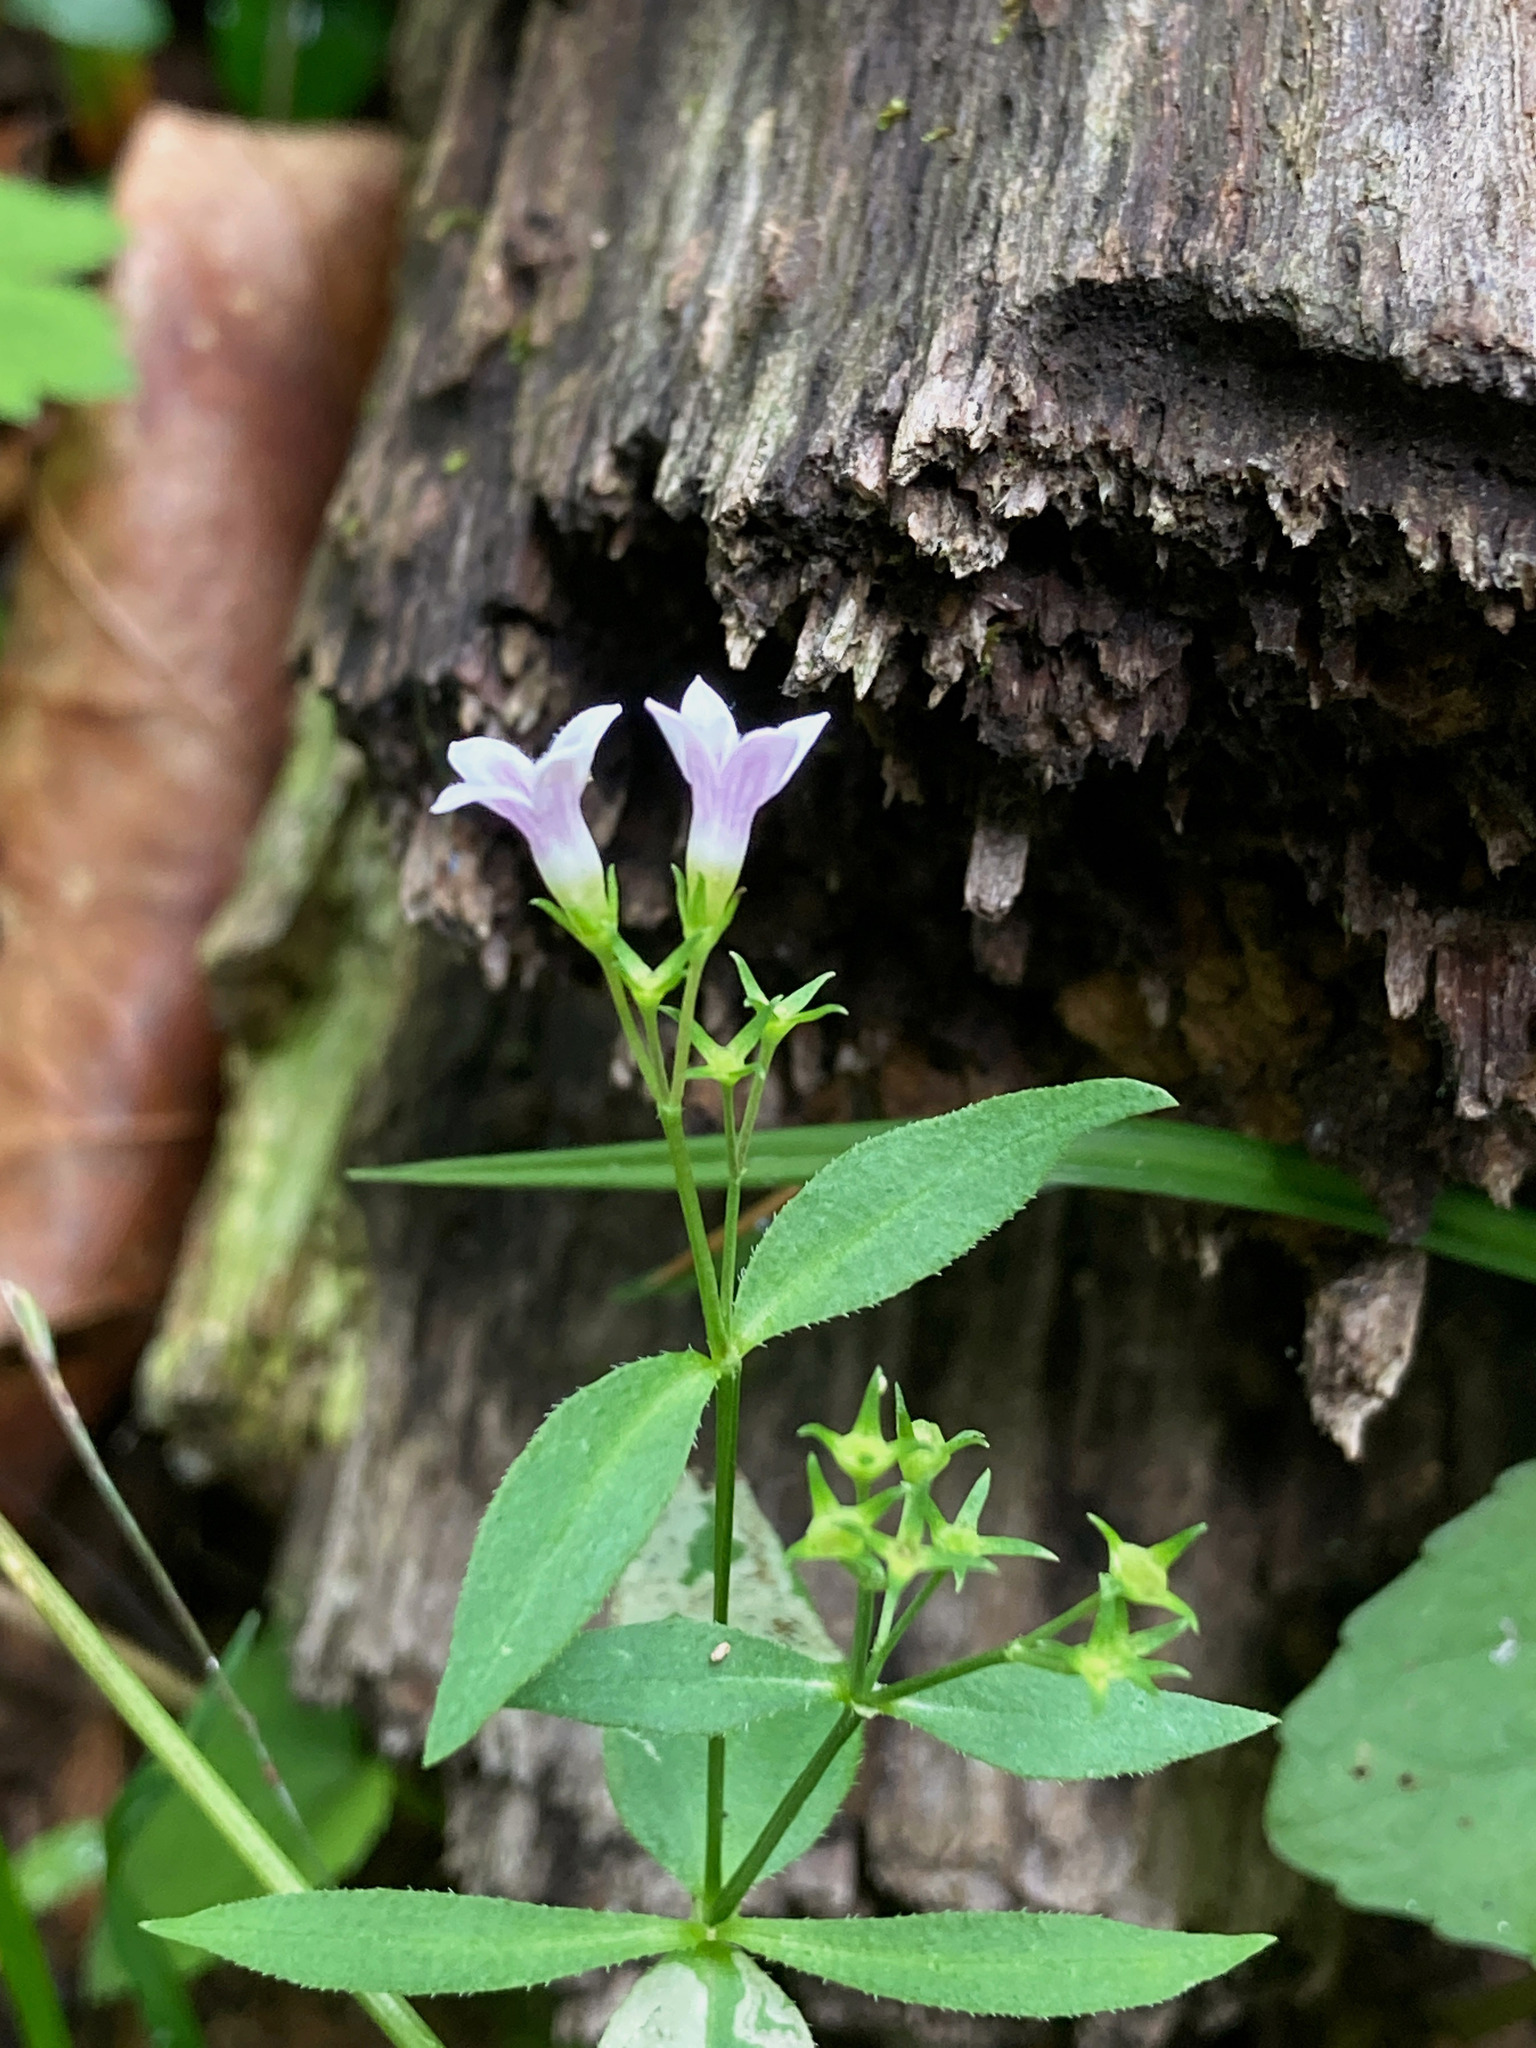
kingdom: Plantae
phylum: Tracheophyta
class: Magnoliopsida
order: Gentianales
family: Rubiaceae
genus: Houstonia
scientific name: Houstonia purpurea
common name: Summer bluet
